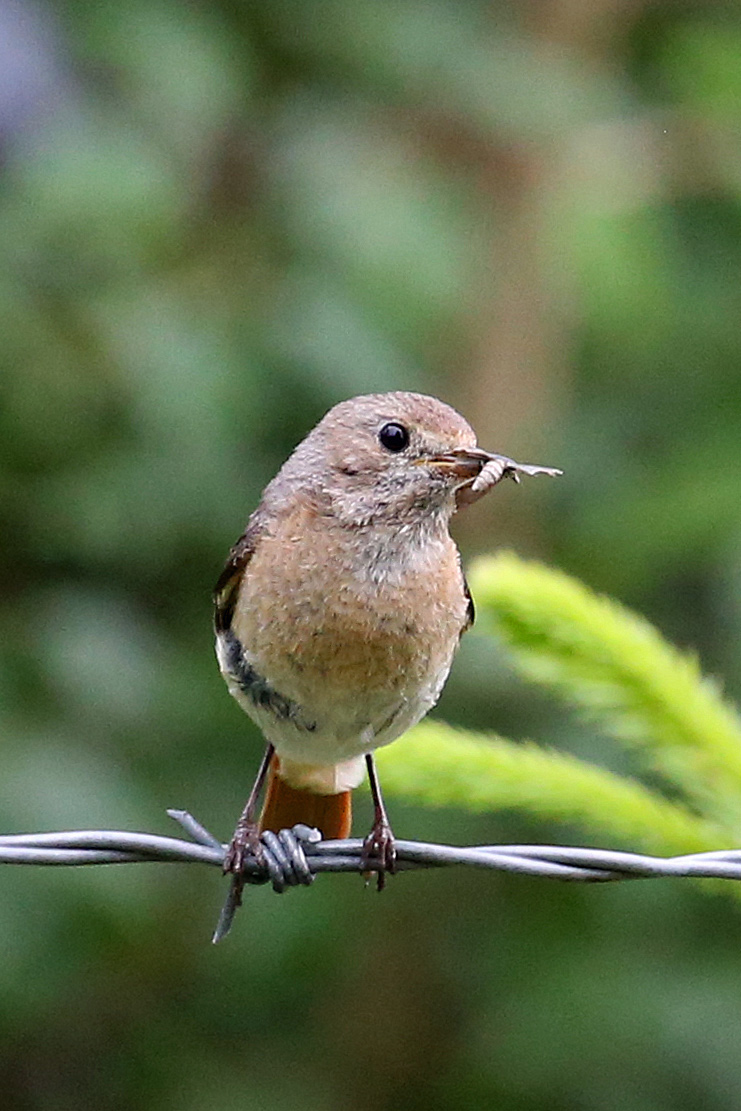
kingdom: Animalia
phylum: Chordata
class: Aves
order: Passeriformes
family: Muscicapidae
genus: Phoenicurus
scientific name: Phoenicurus phoenicurus
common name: Common redstart
